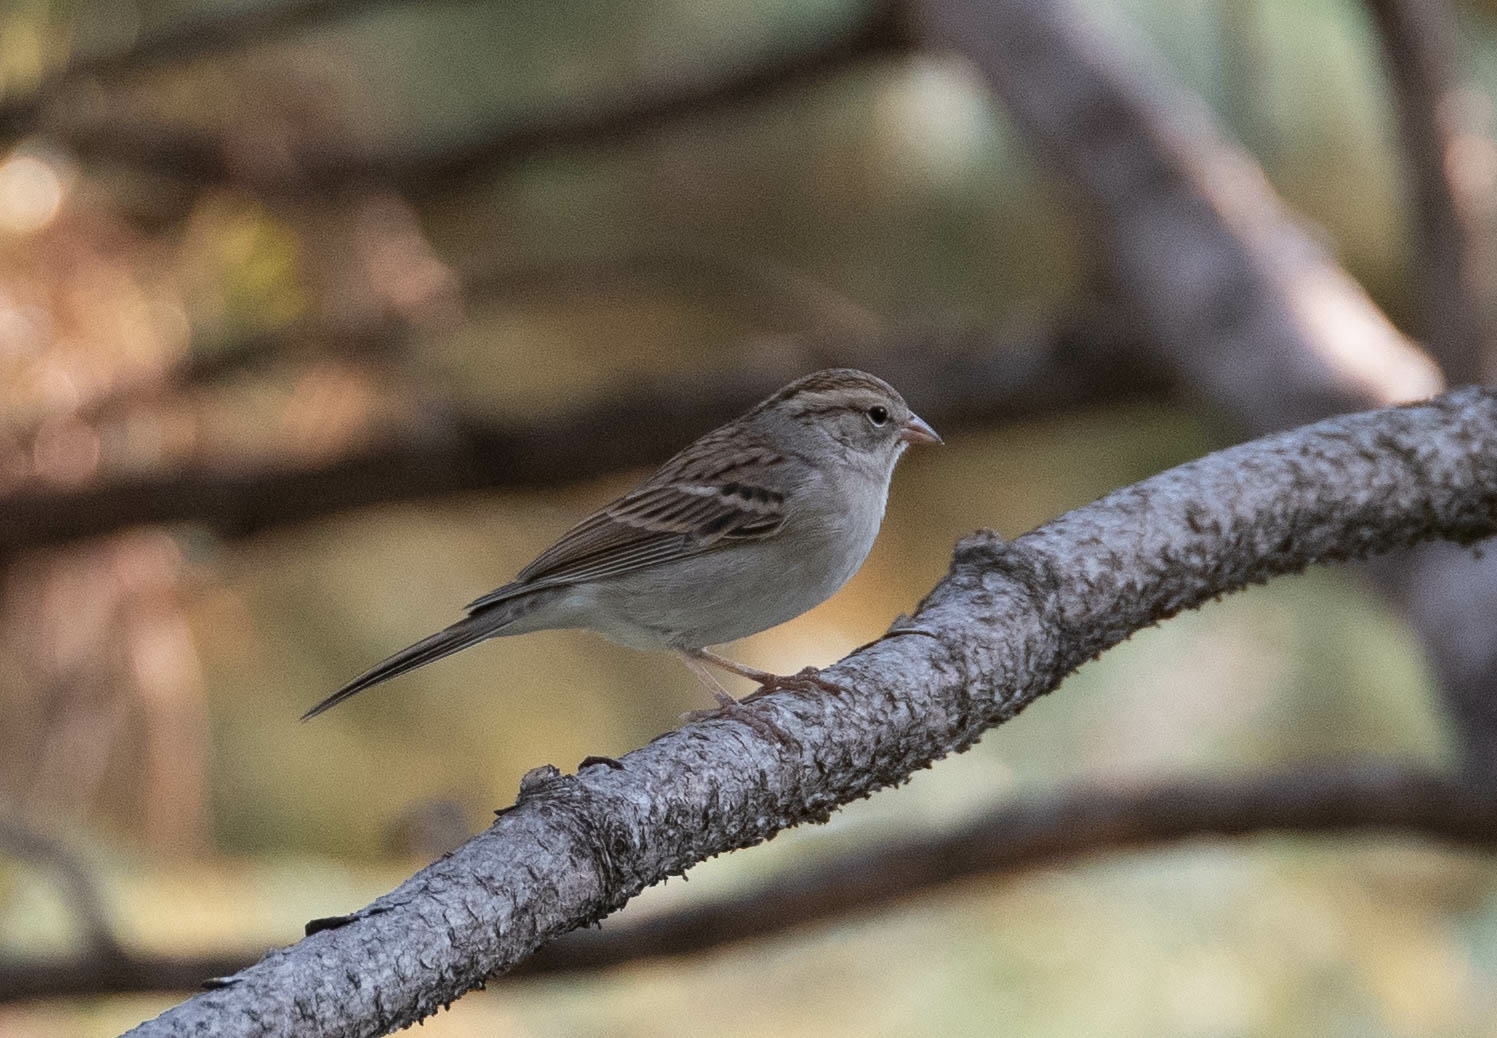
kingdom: Animalia
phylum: Chordata
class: Aves
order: Passeriformes
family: Passerellidae
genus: Spizella
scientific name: Spizella passerina
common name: Chipping sparrow
